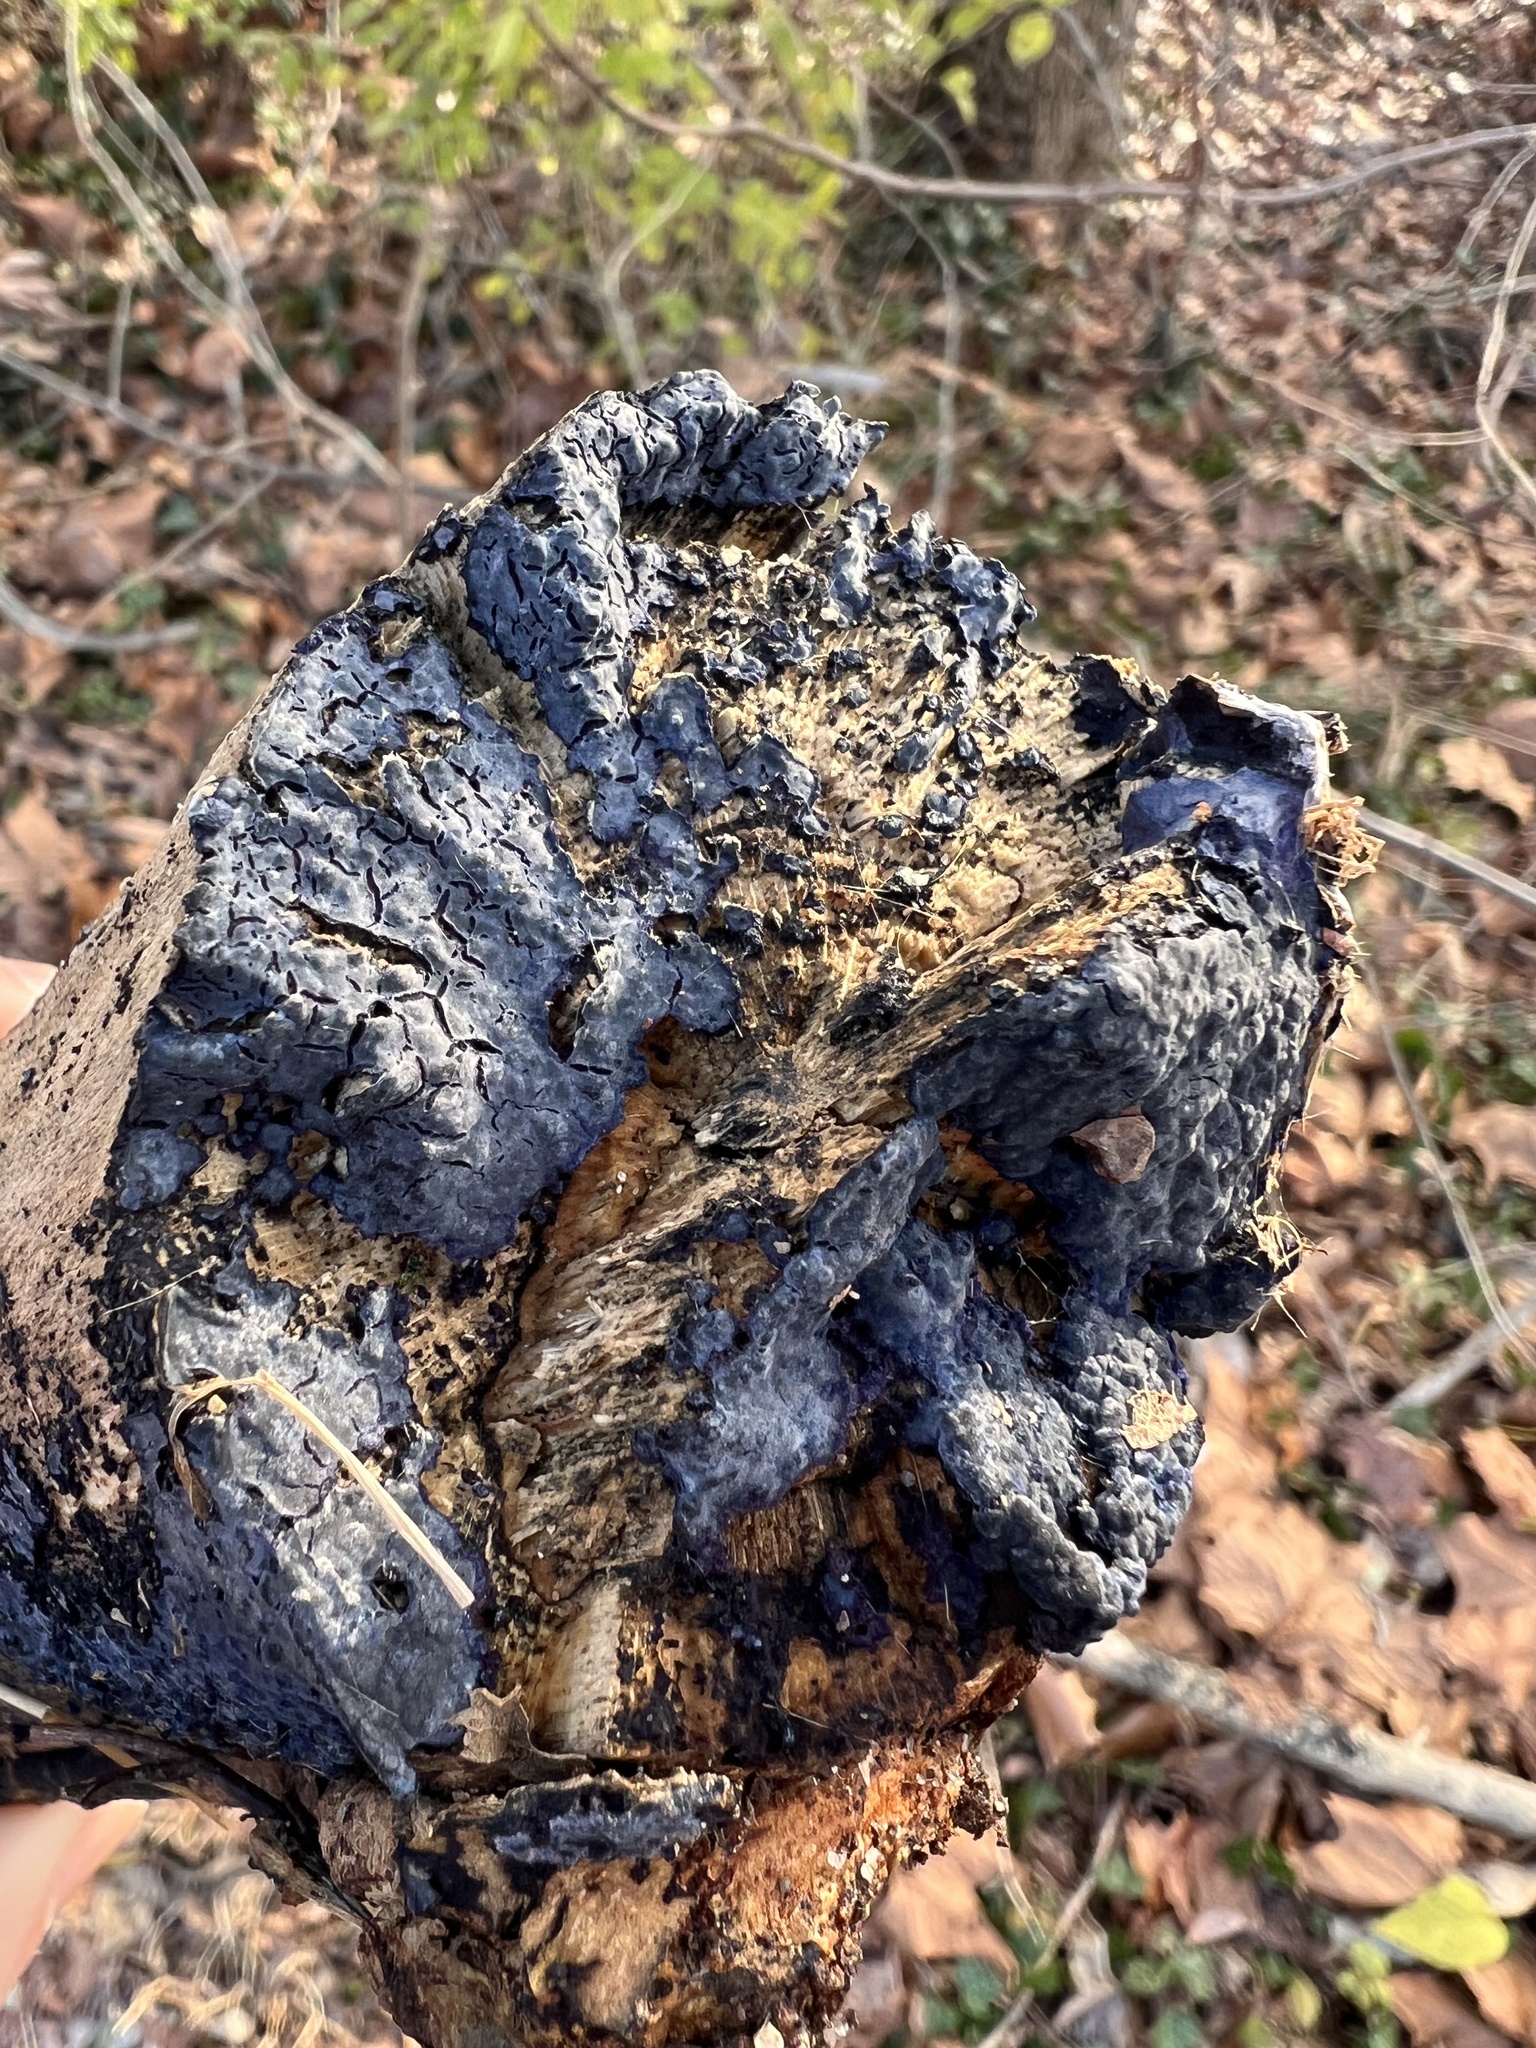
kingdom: Fungi
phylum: Basidiomycota
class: Agaricomycetes
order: Polyporales
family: Phanerochaetaceae
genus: Terana
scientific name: Terana coerulea
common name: Cobalt crust
